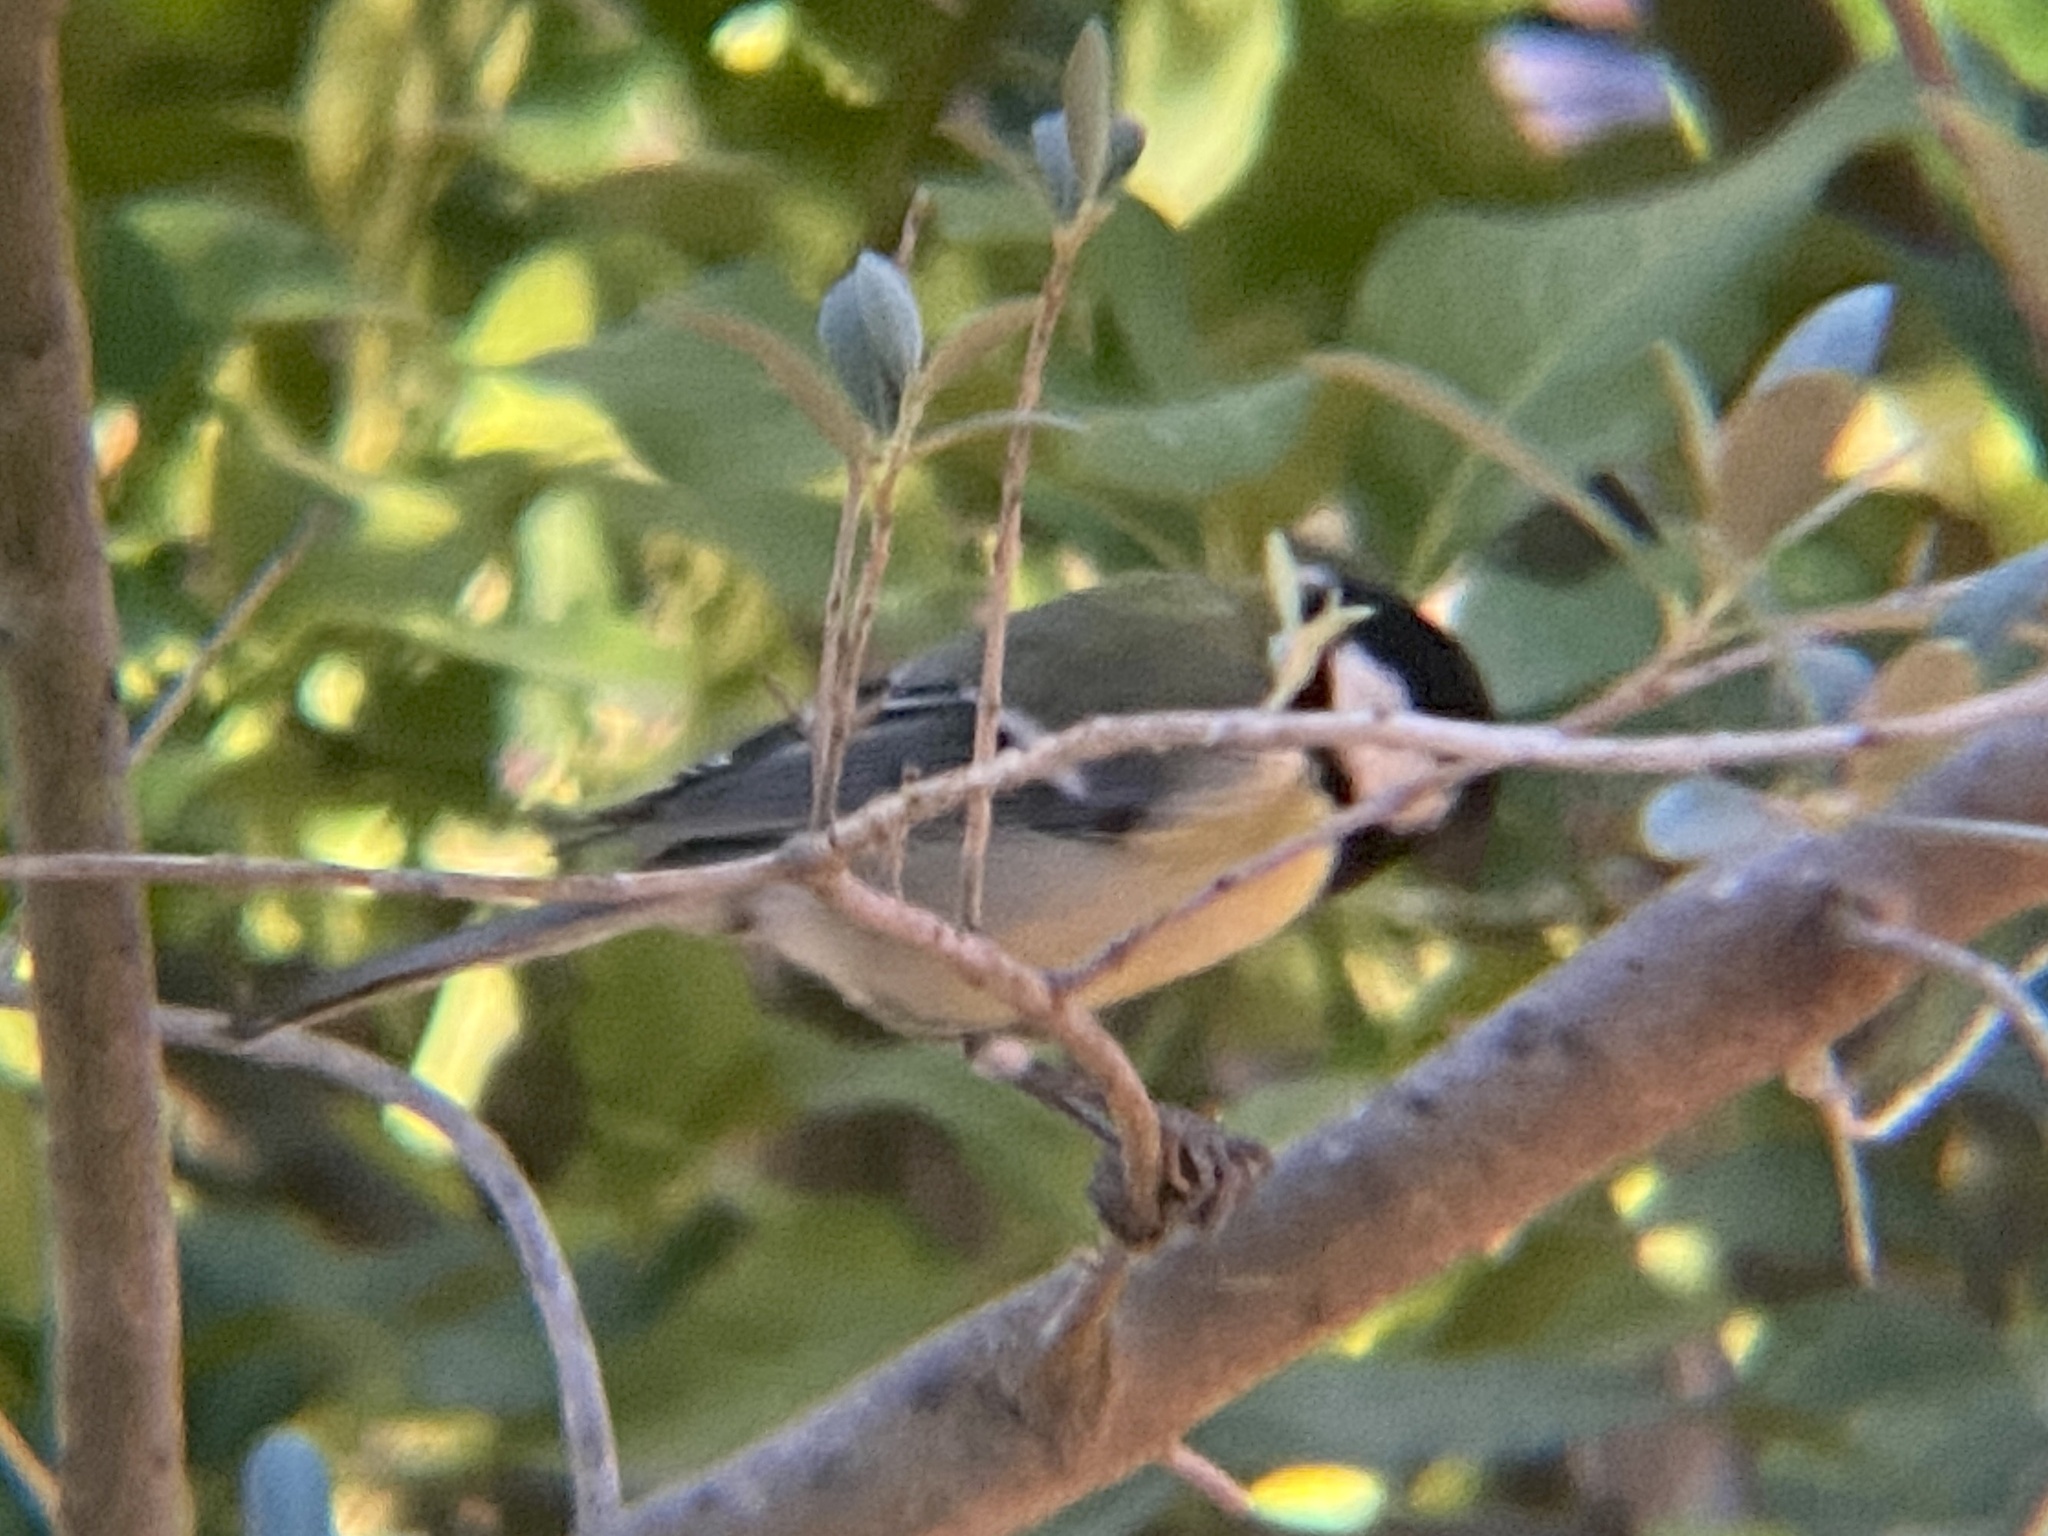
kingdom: Animalia
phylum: Chordata
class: Aves
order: Passeriformes
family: Paridae
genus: Parus
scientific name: Parus major
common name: Great tit
